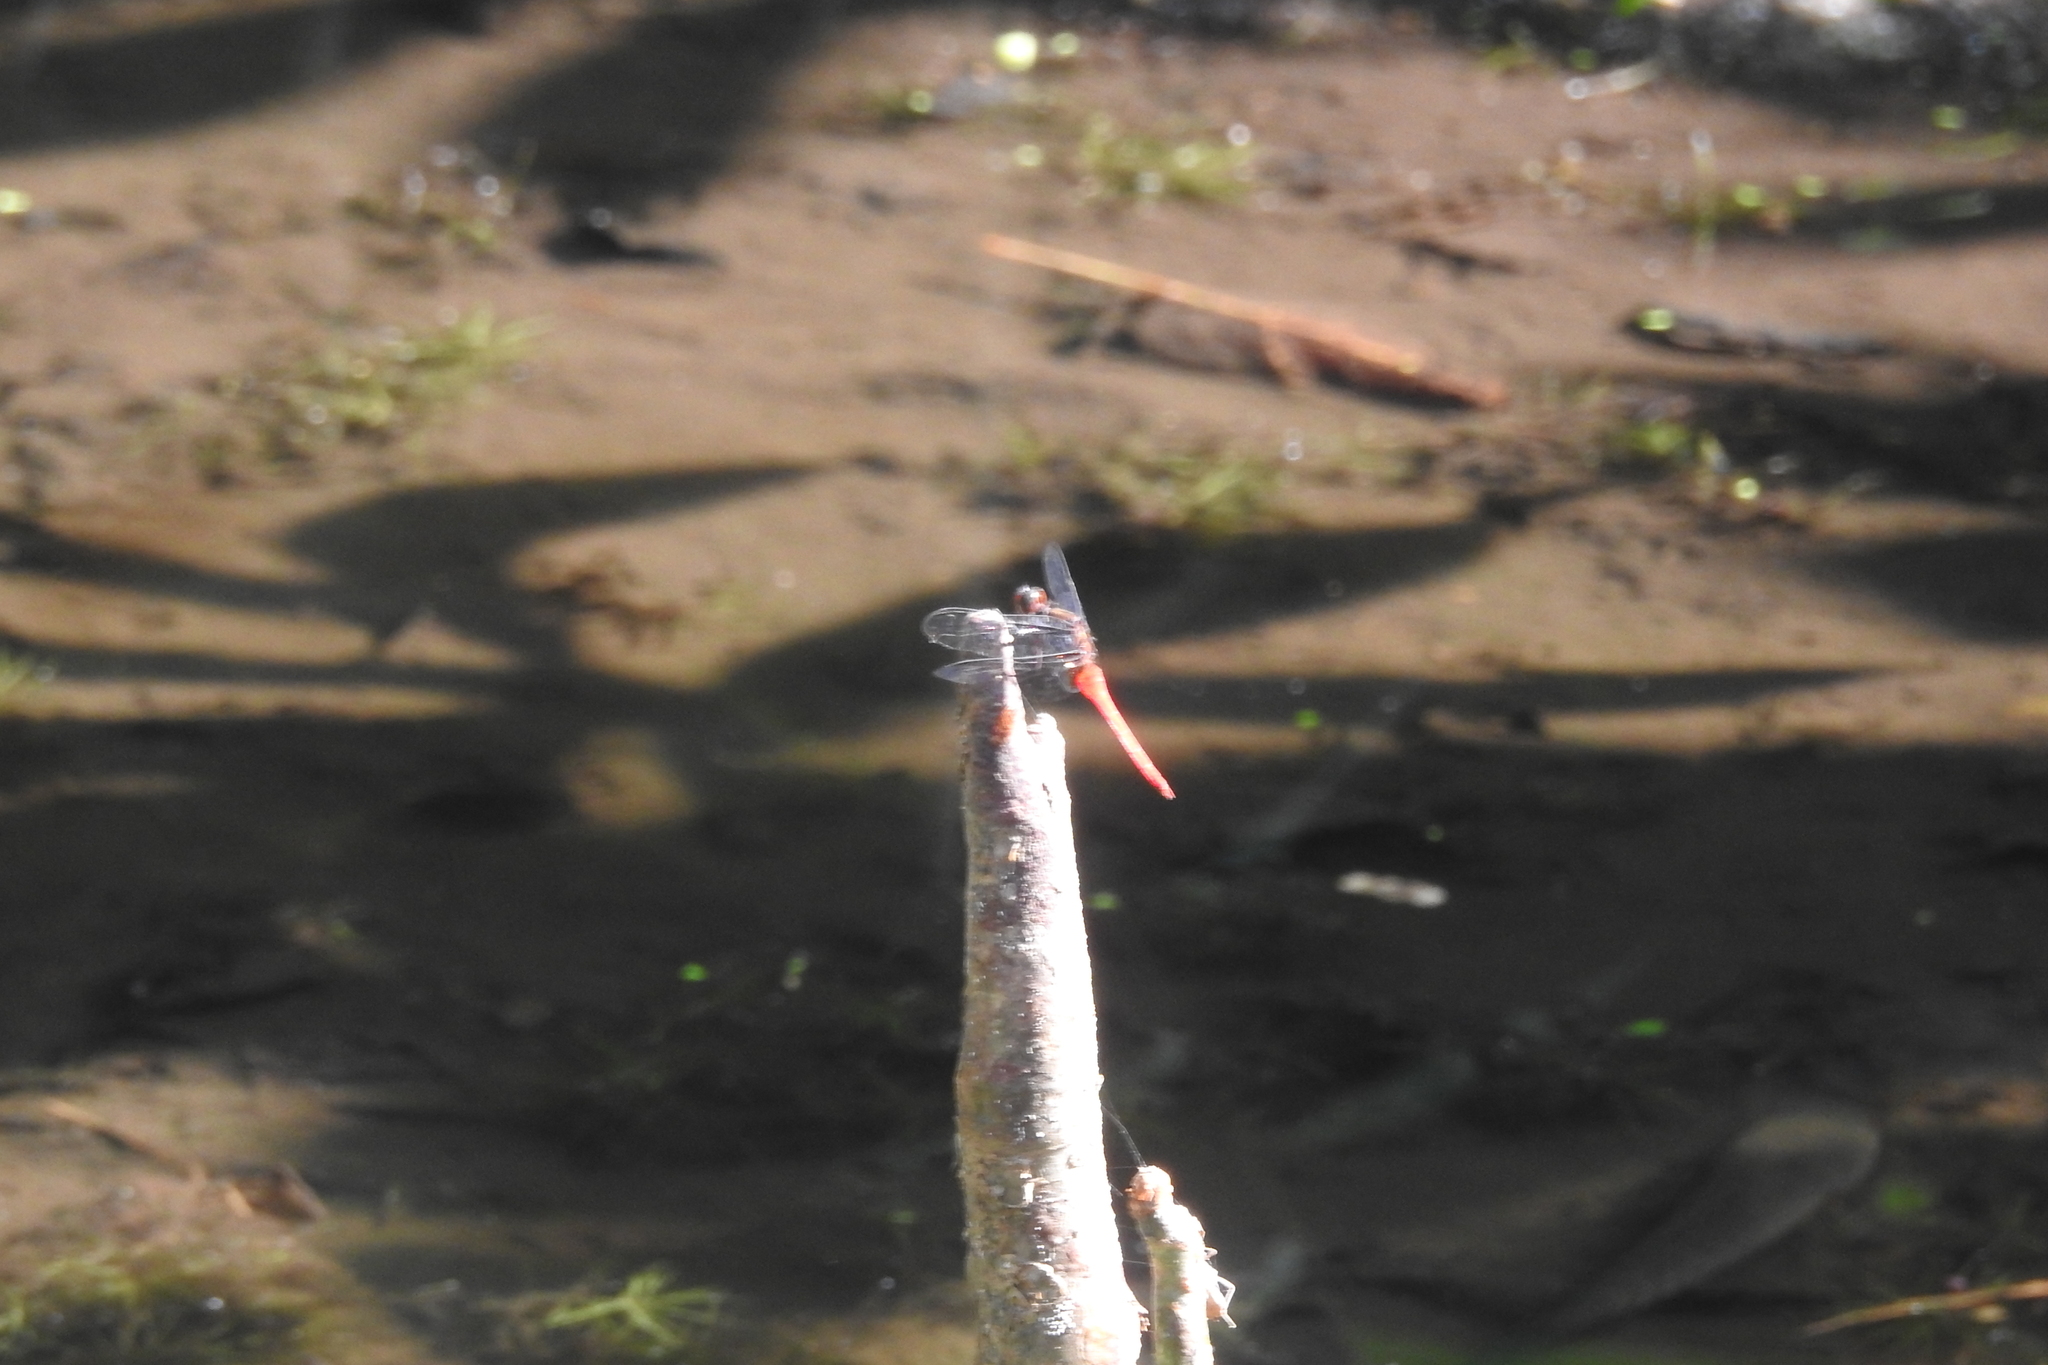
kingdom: Animalia
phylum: Arthropoda
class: Insecta
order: Odonata
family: Libellulidae
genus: Orthetrum
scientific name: Orthetrum chrysis
